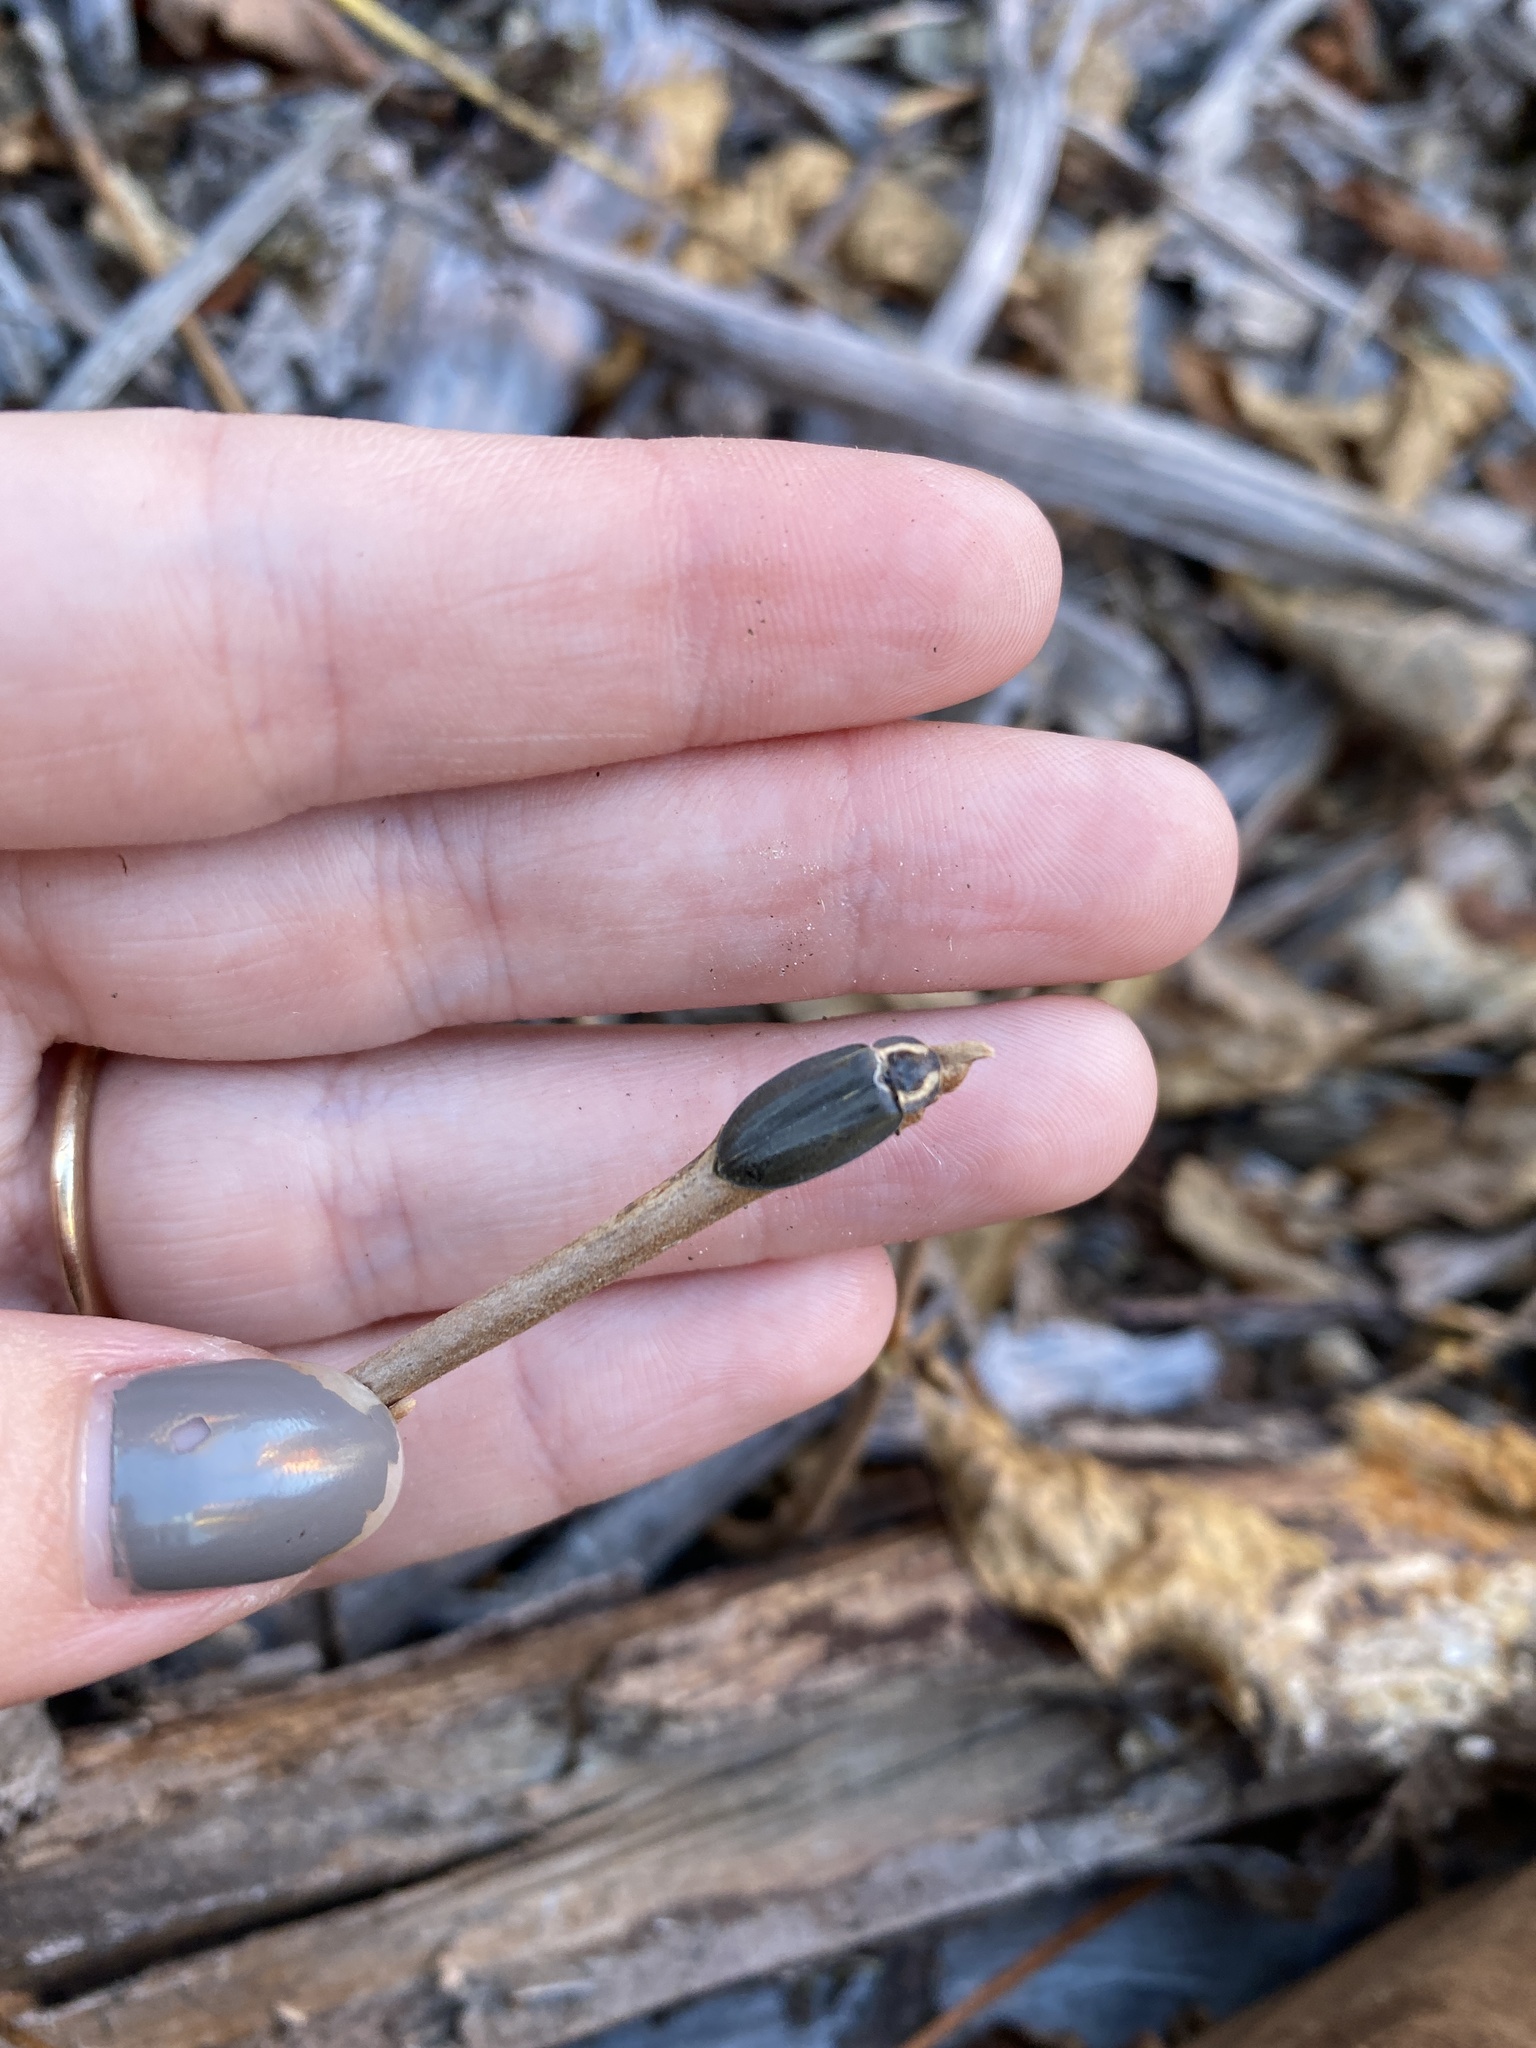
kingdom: Animalia
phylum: Arthropoda
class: Insecta
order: Coleoptera
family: Lampyridae
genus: Photinus
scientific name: Photinus corrusca
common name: Winter firefly
